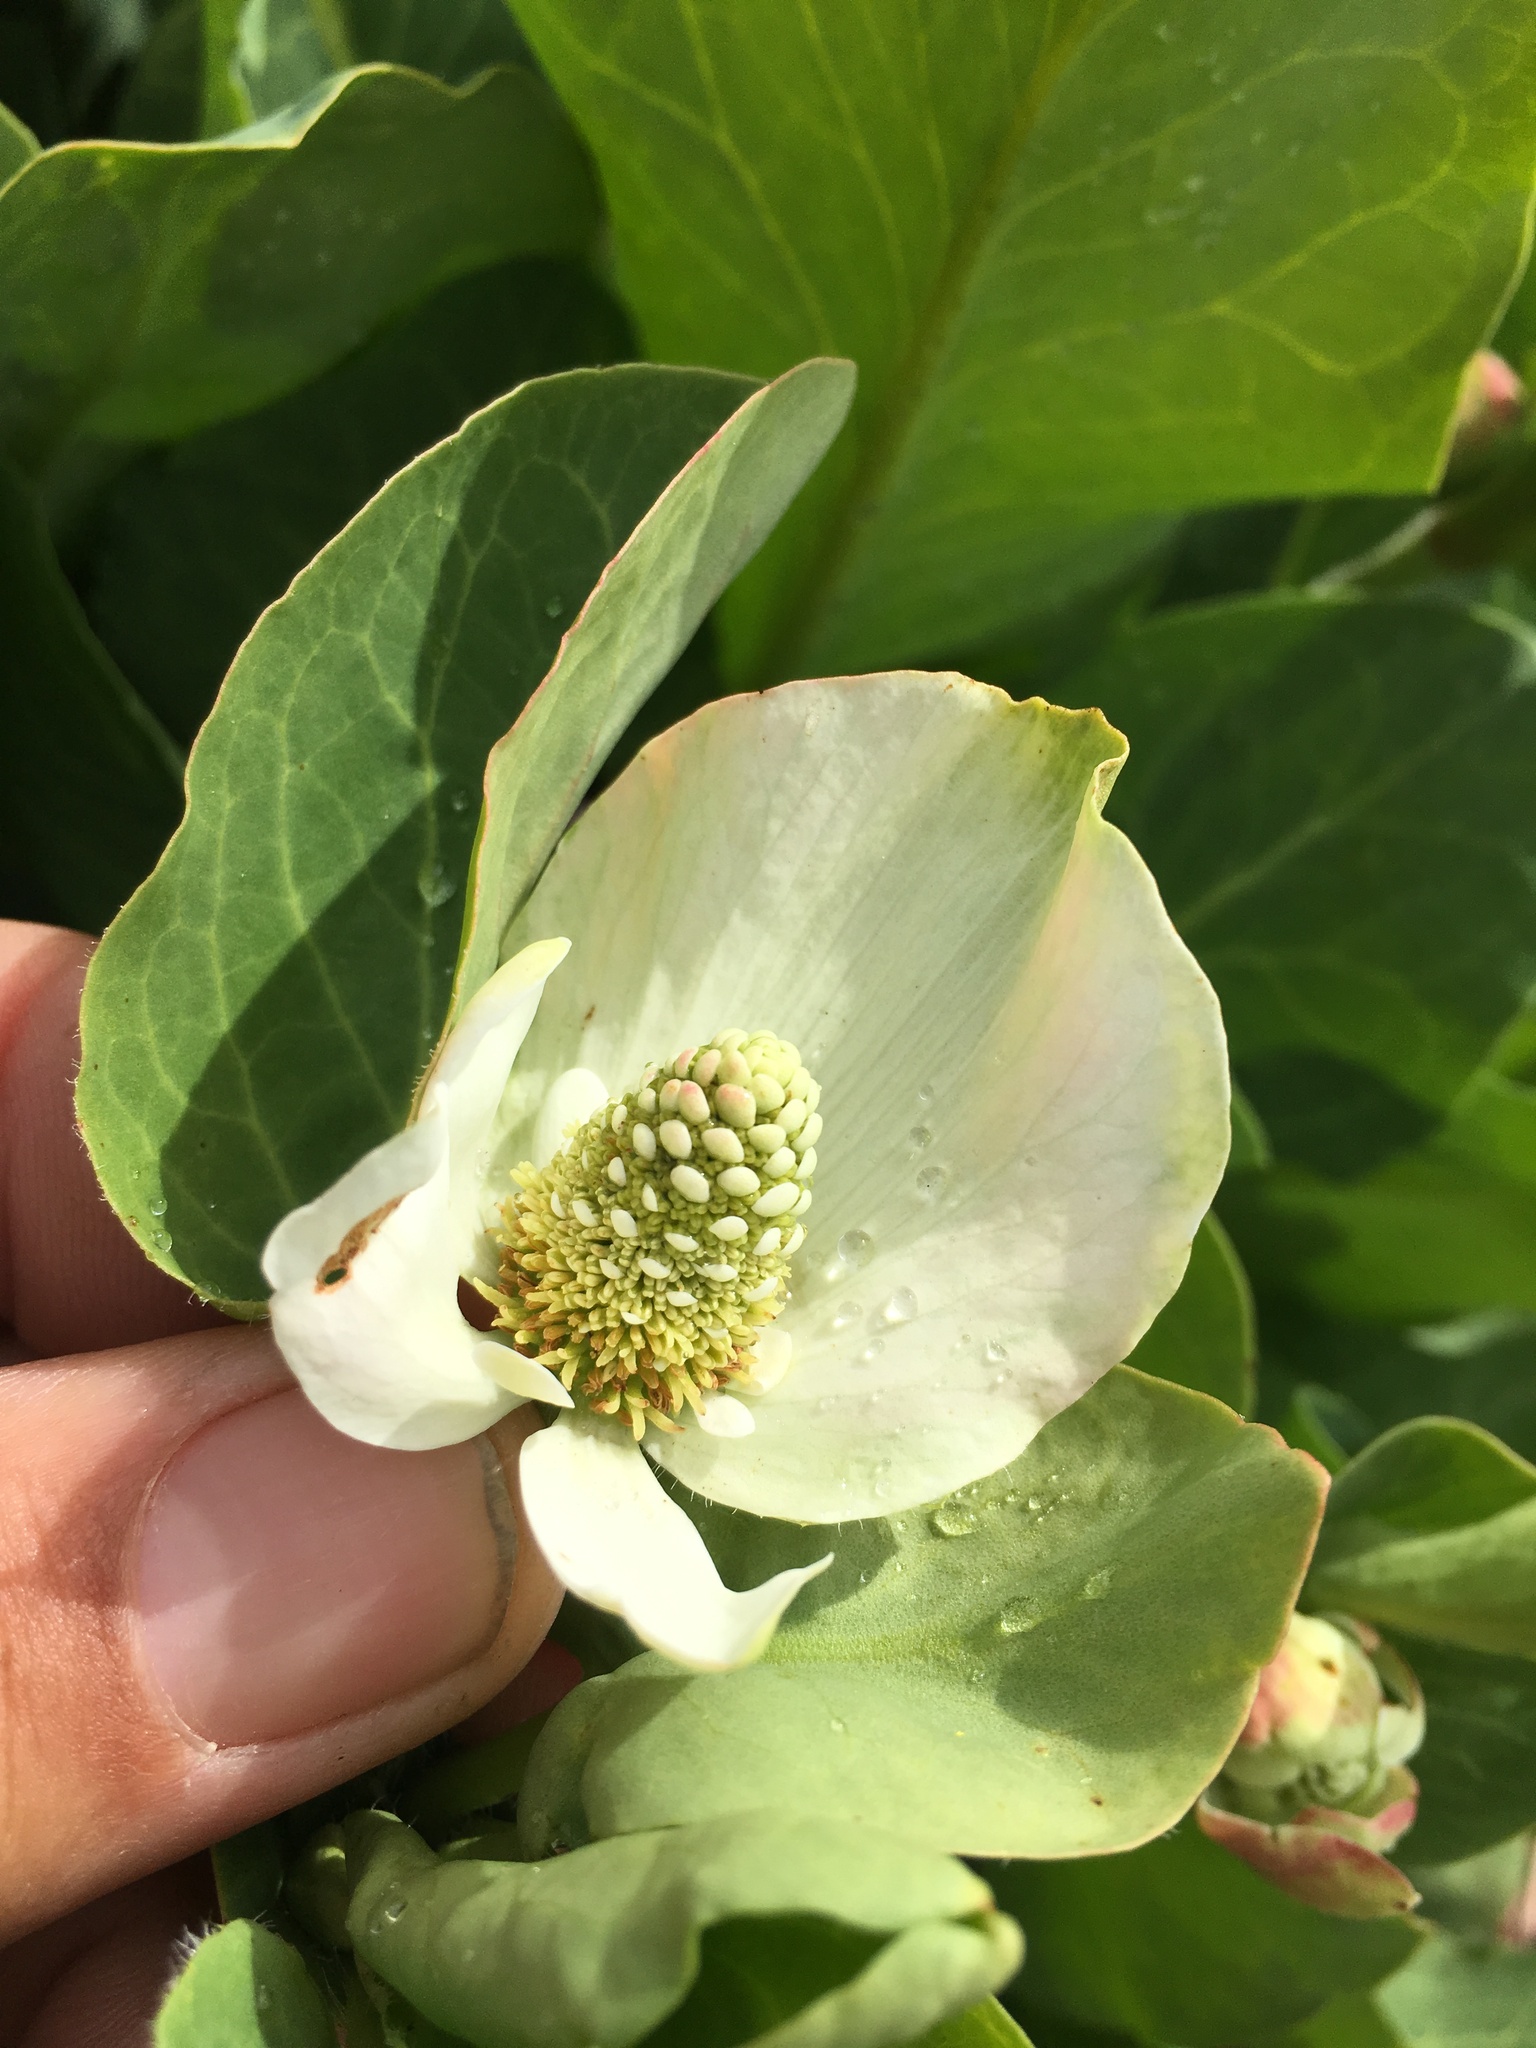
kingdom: Plantae
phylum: Tracheophyta
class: Magnoliopsida
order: Piperales
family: Saururaceae
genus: Anemopsis
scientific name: Anemopsis californica
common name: Apache-beads
